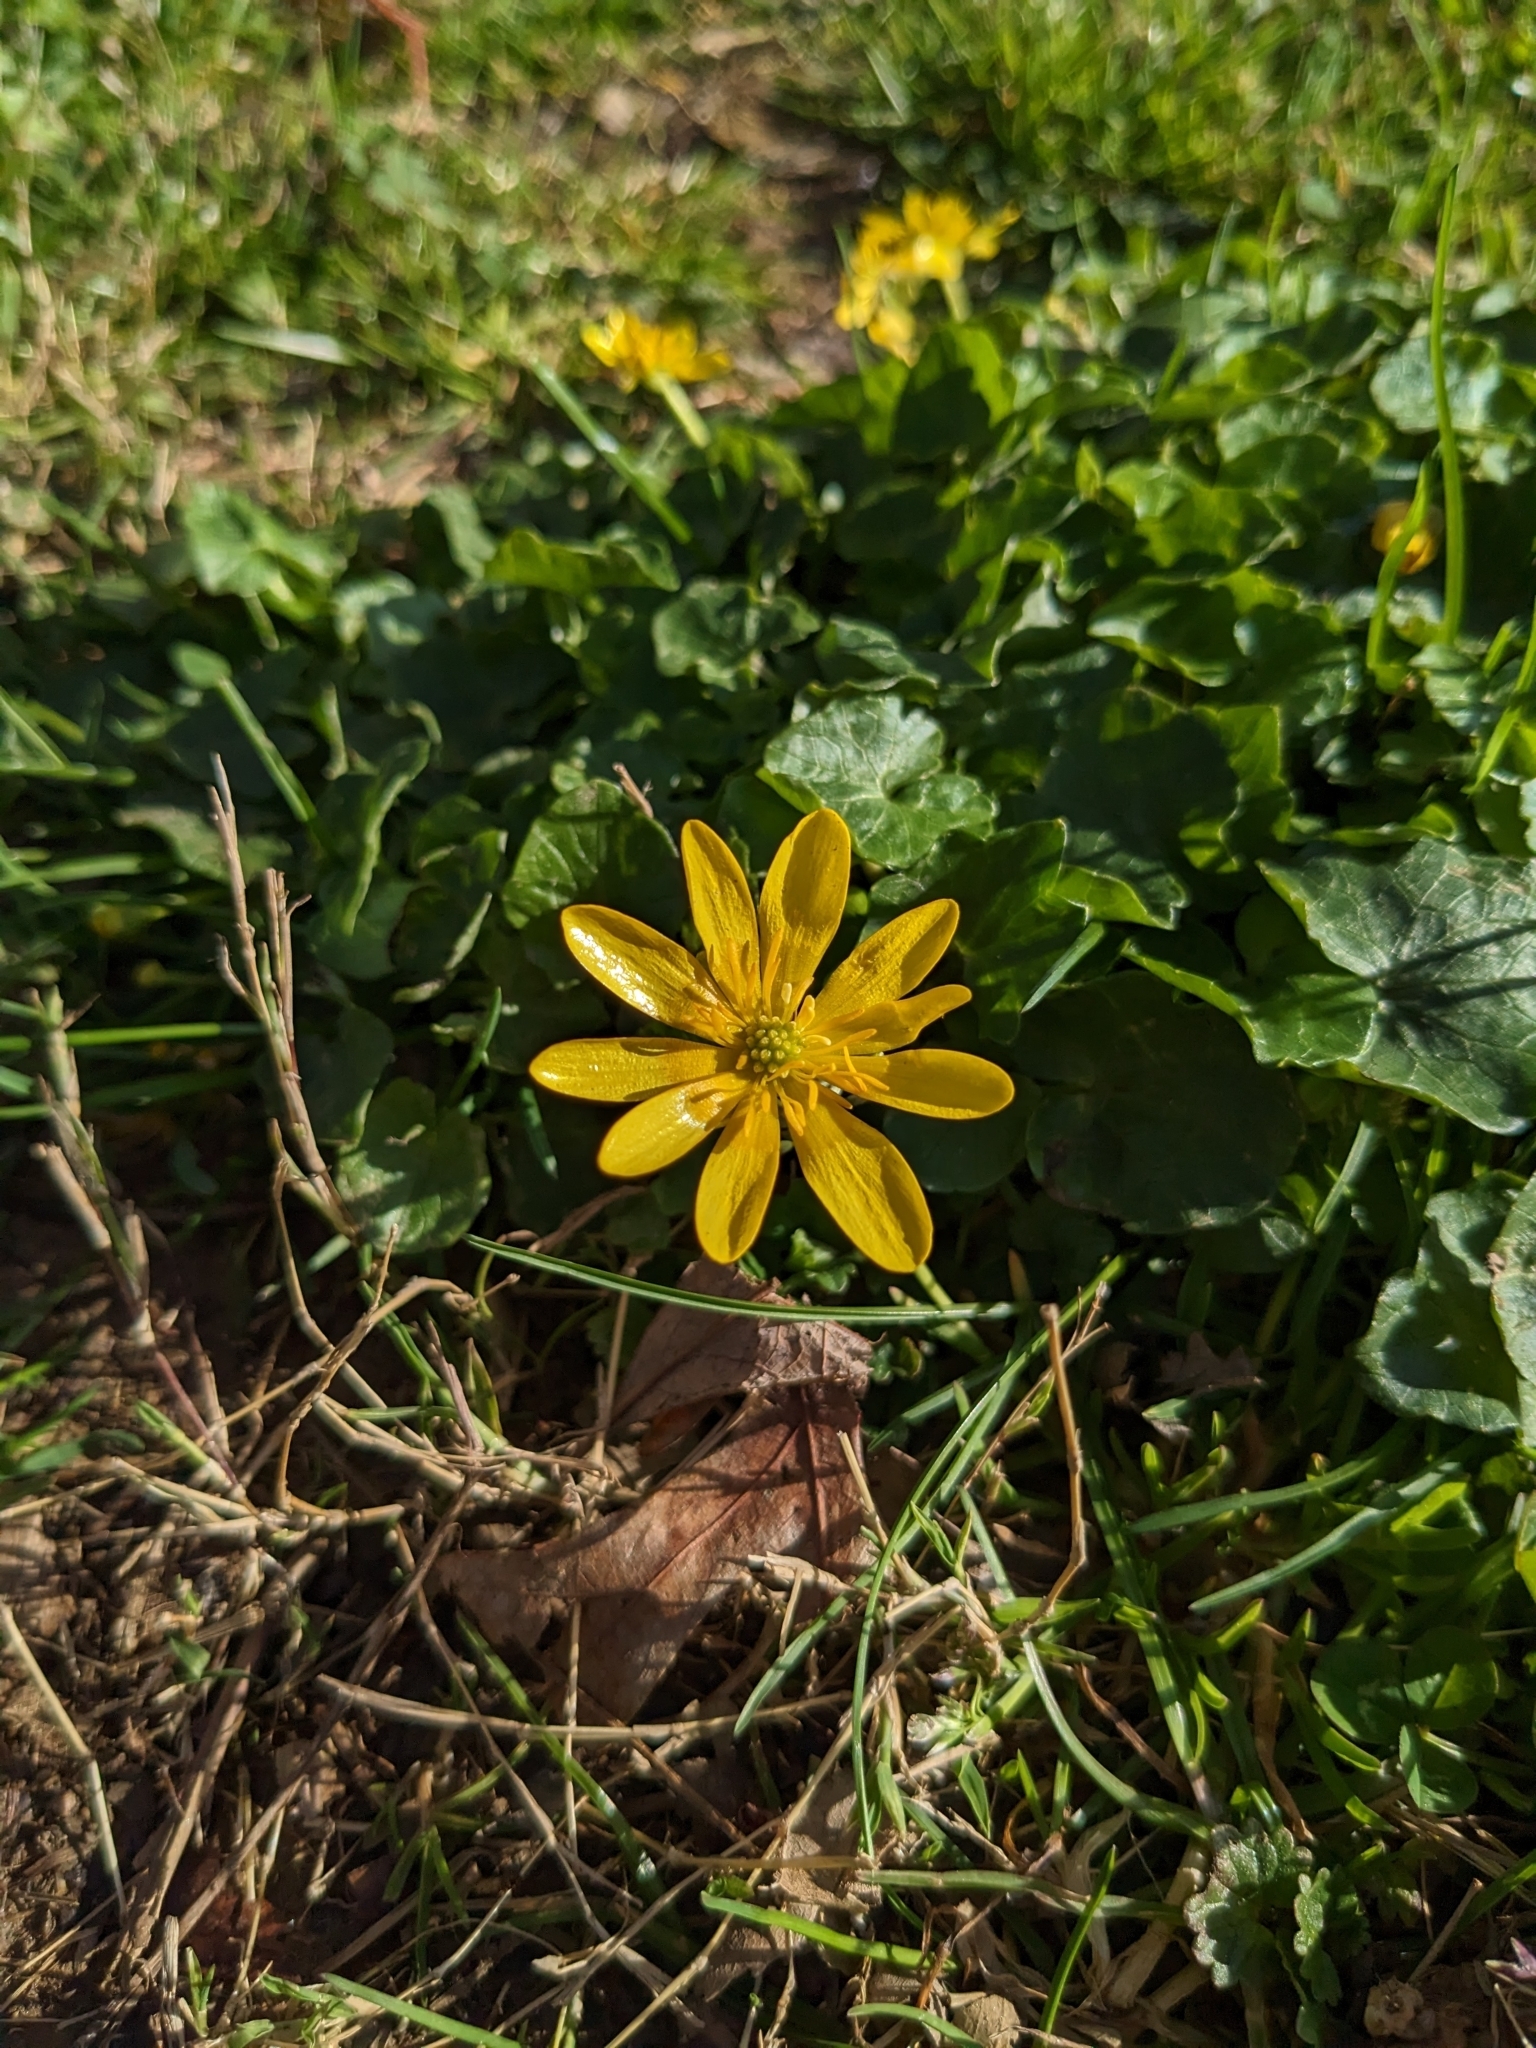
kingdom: Plantae
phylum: Tracheophyta
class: Magnoliopsida
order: Ranunculales
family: Ranunculaceae
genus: Ficaria
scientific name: Ficaria verna
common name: Lesser celandine
